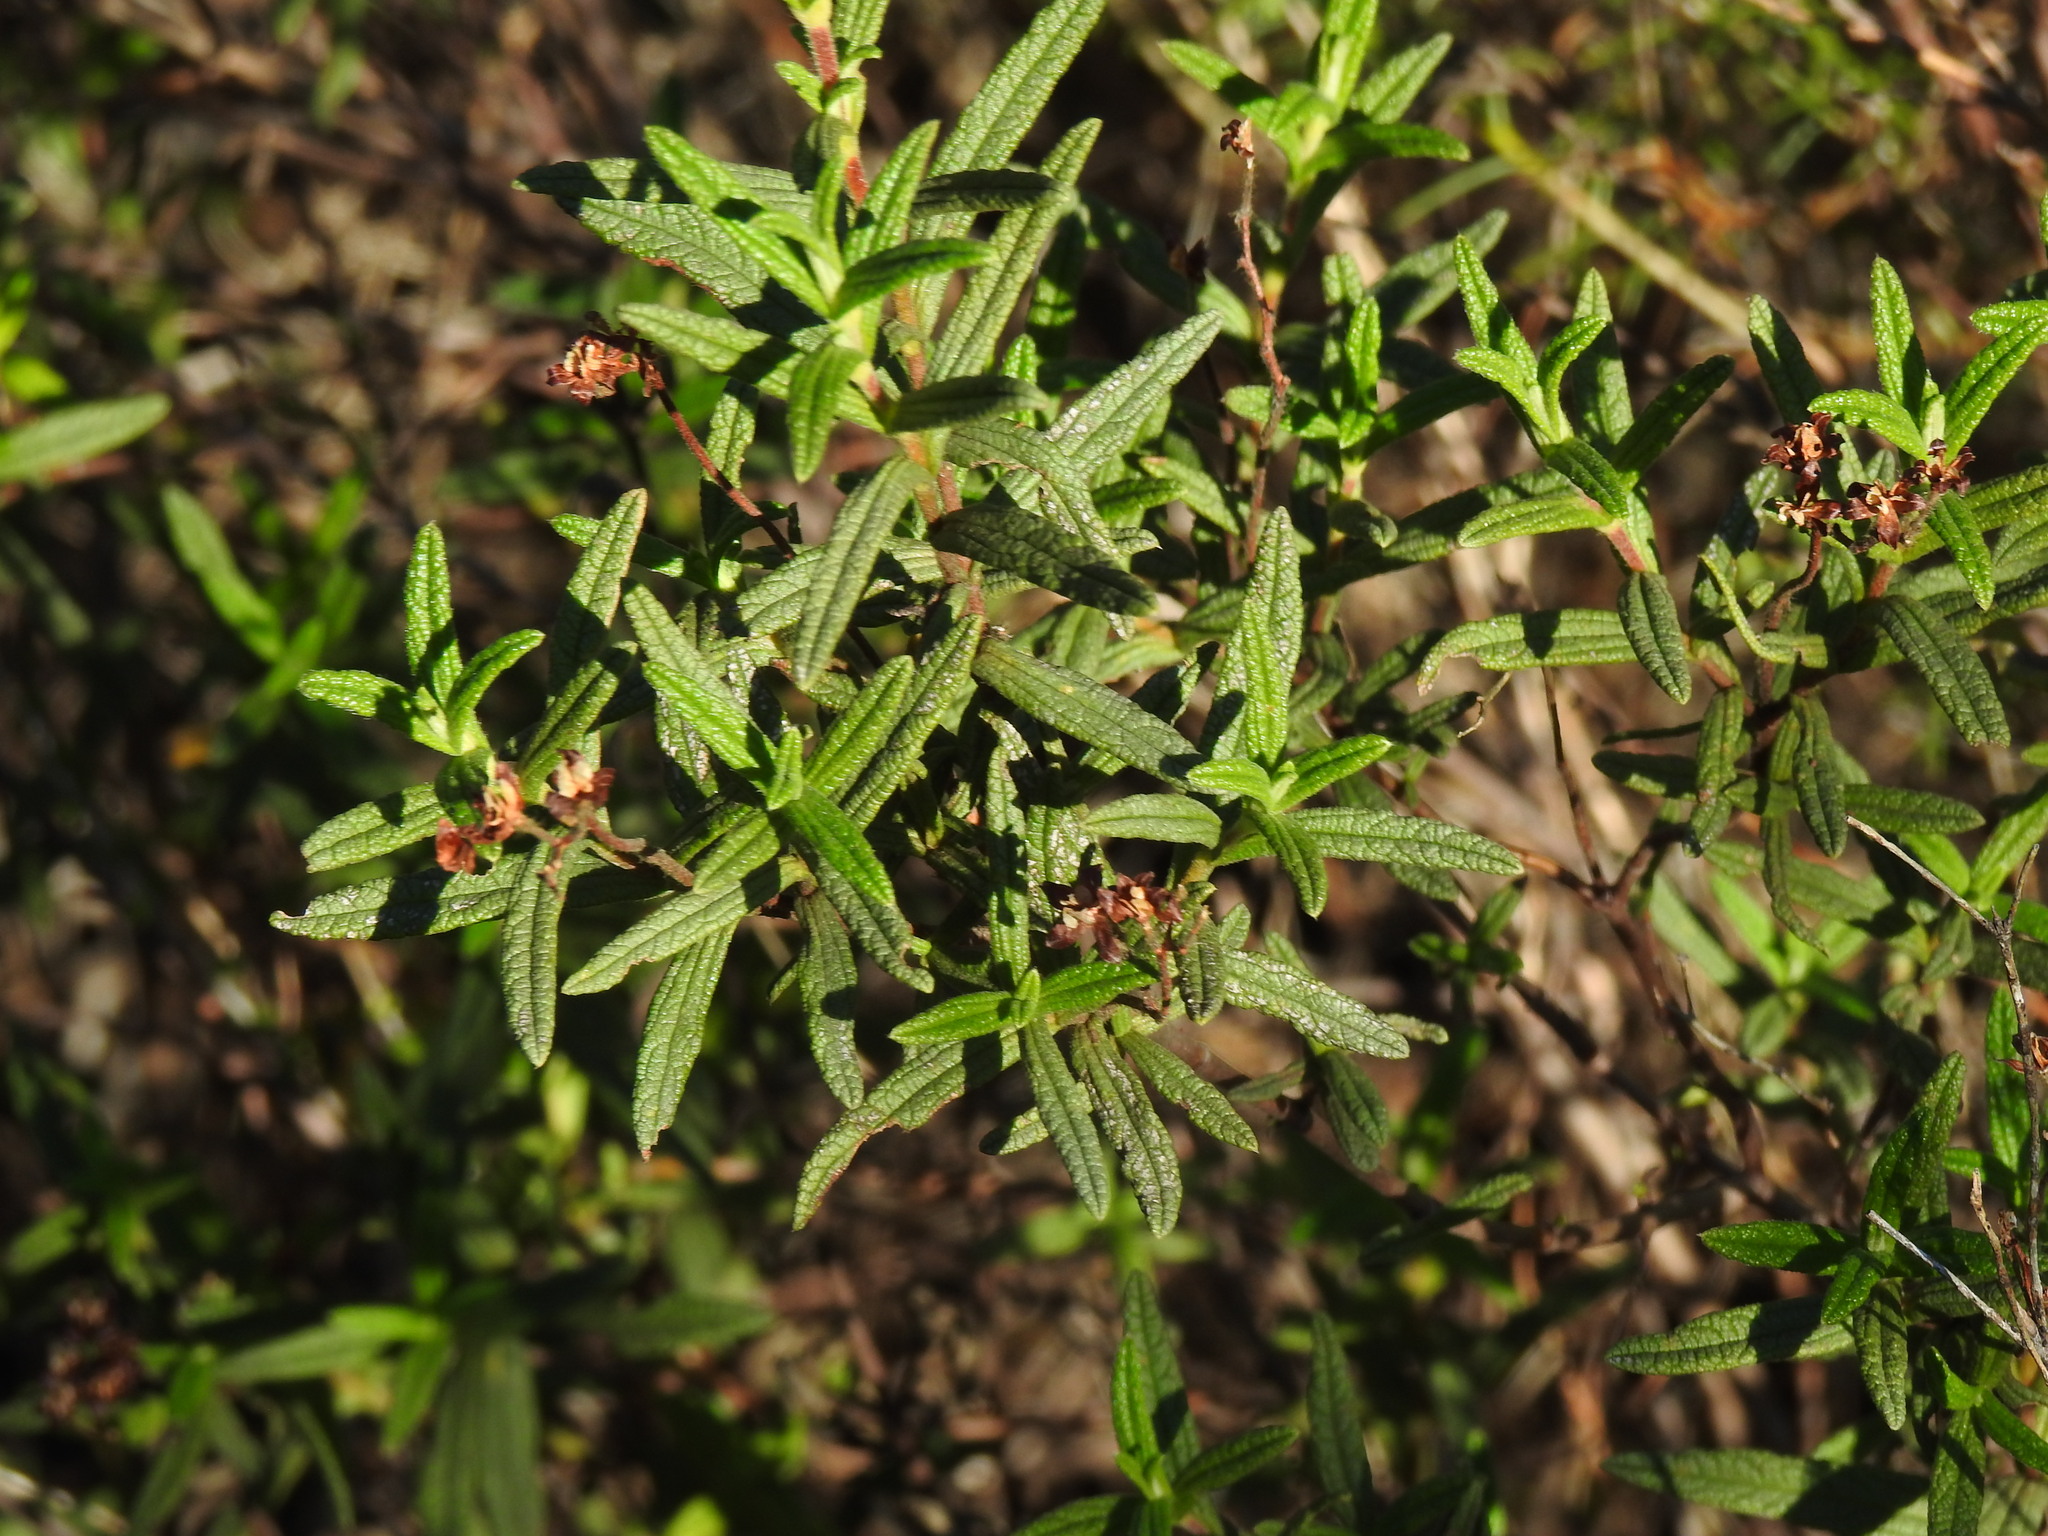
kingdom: Plantae
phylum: Tracheophyta
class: Magnoliopsida
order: Malvales
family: Cistaceae
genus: Cistus
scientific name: Cistus monspeliensis
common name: Montpelier cistus
